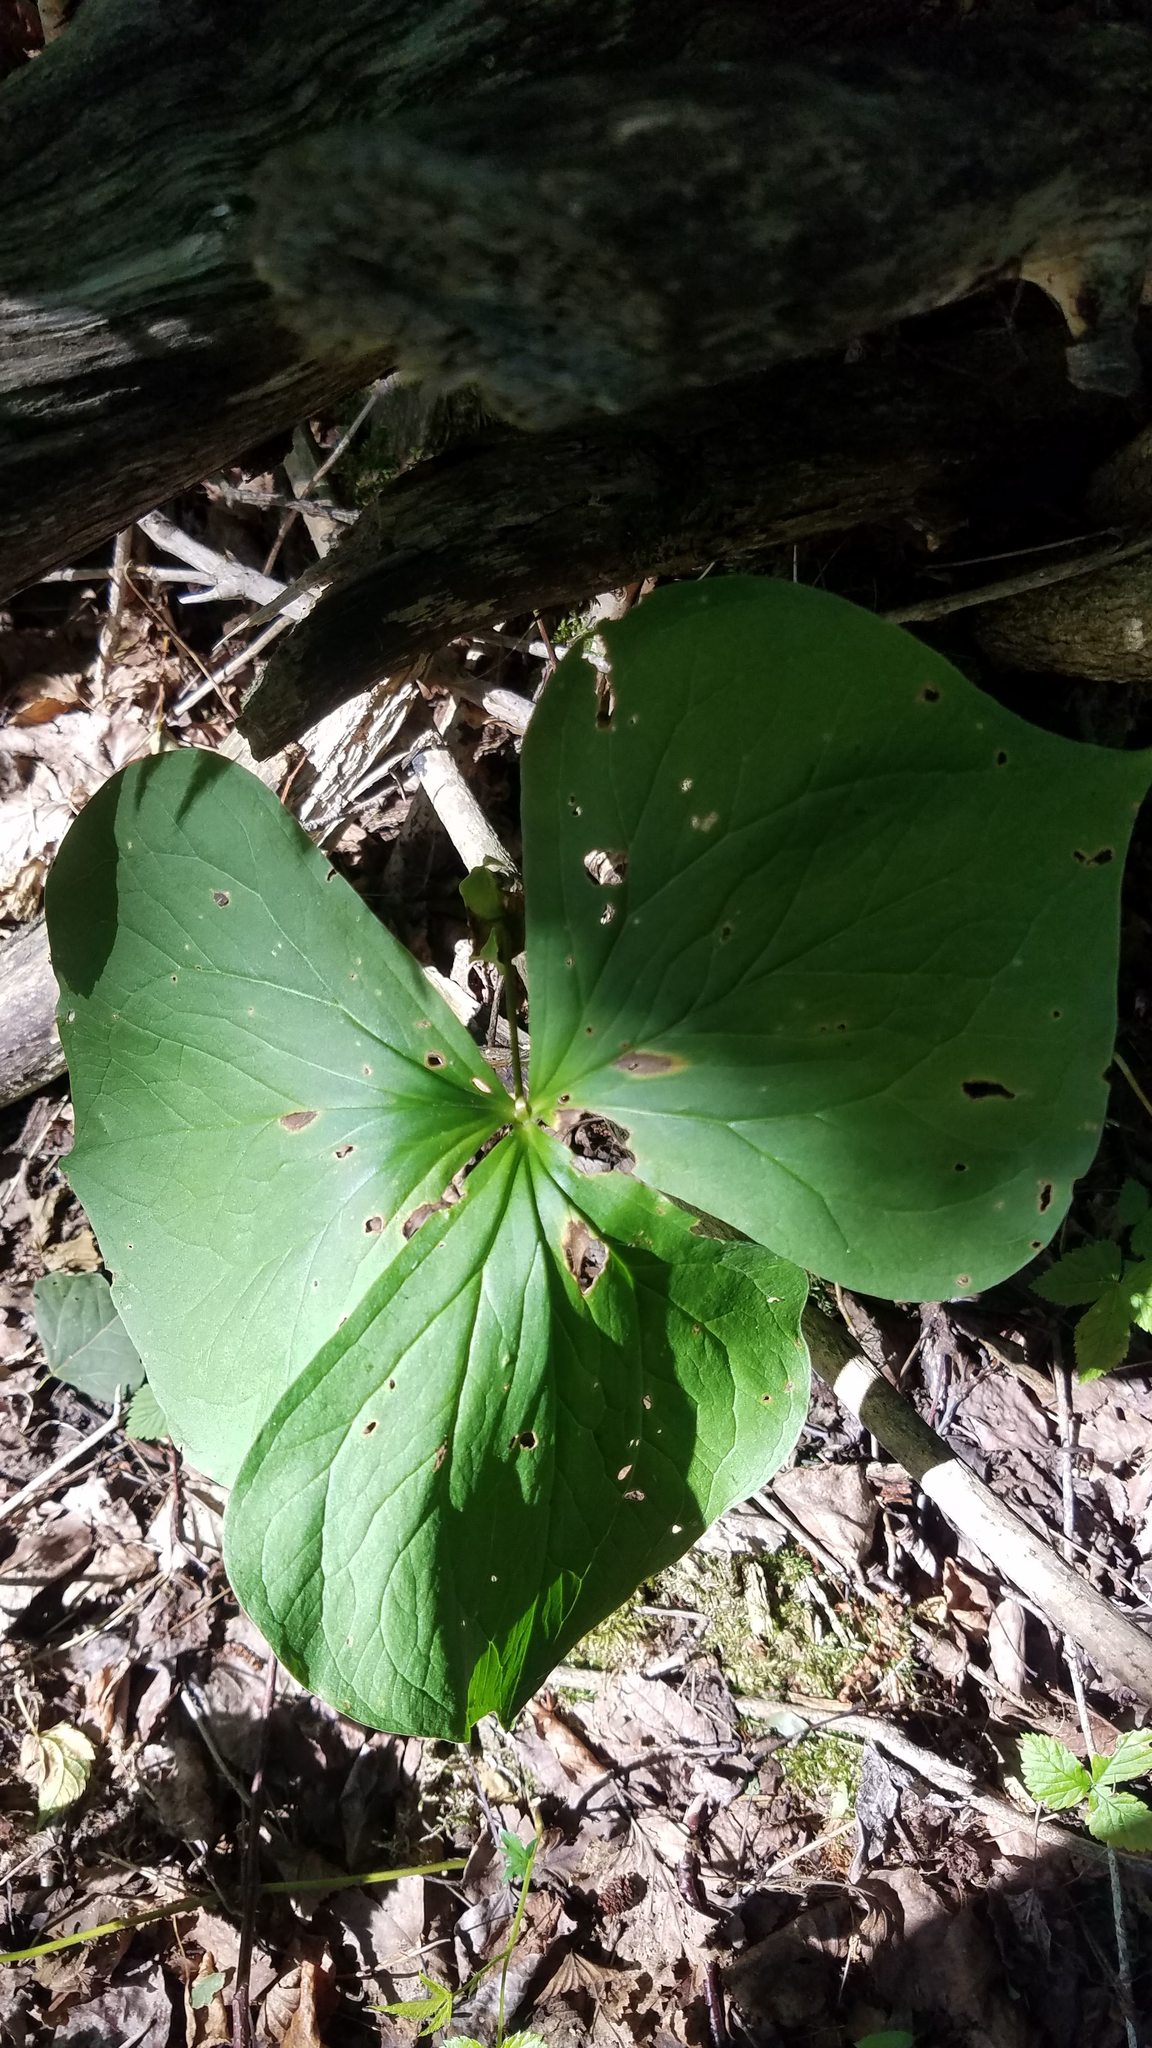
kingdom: Plantae
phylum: Tracheophyta
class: Liliopsida
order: Liliales
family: Melanthiaceae
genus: Trillium
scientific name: Trillium cernuum
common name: Nodding trillium
